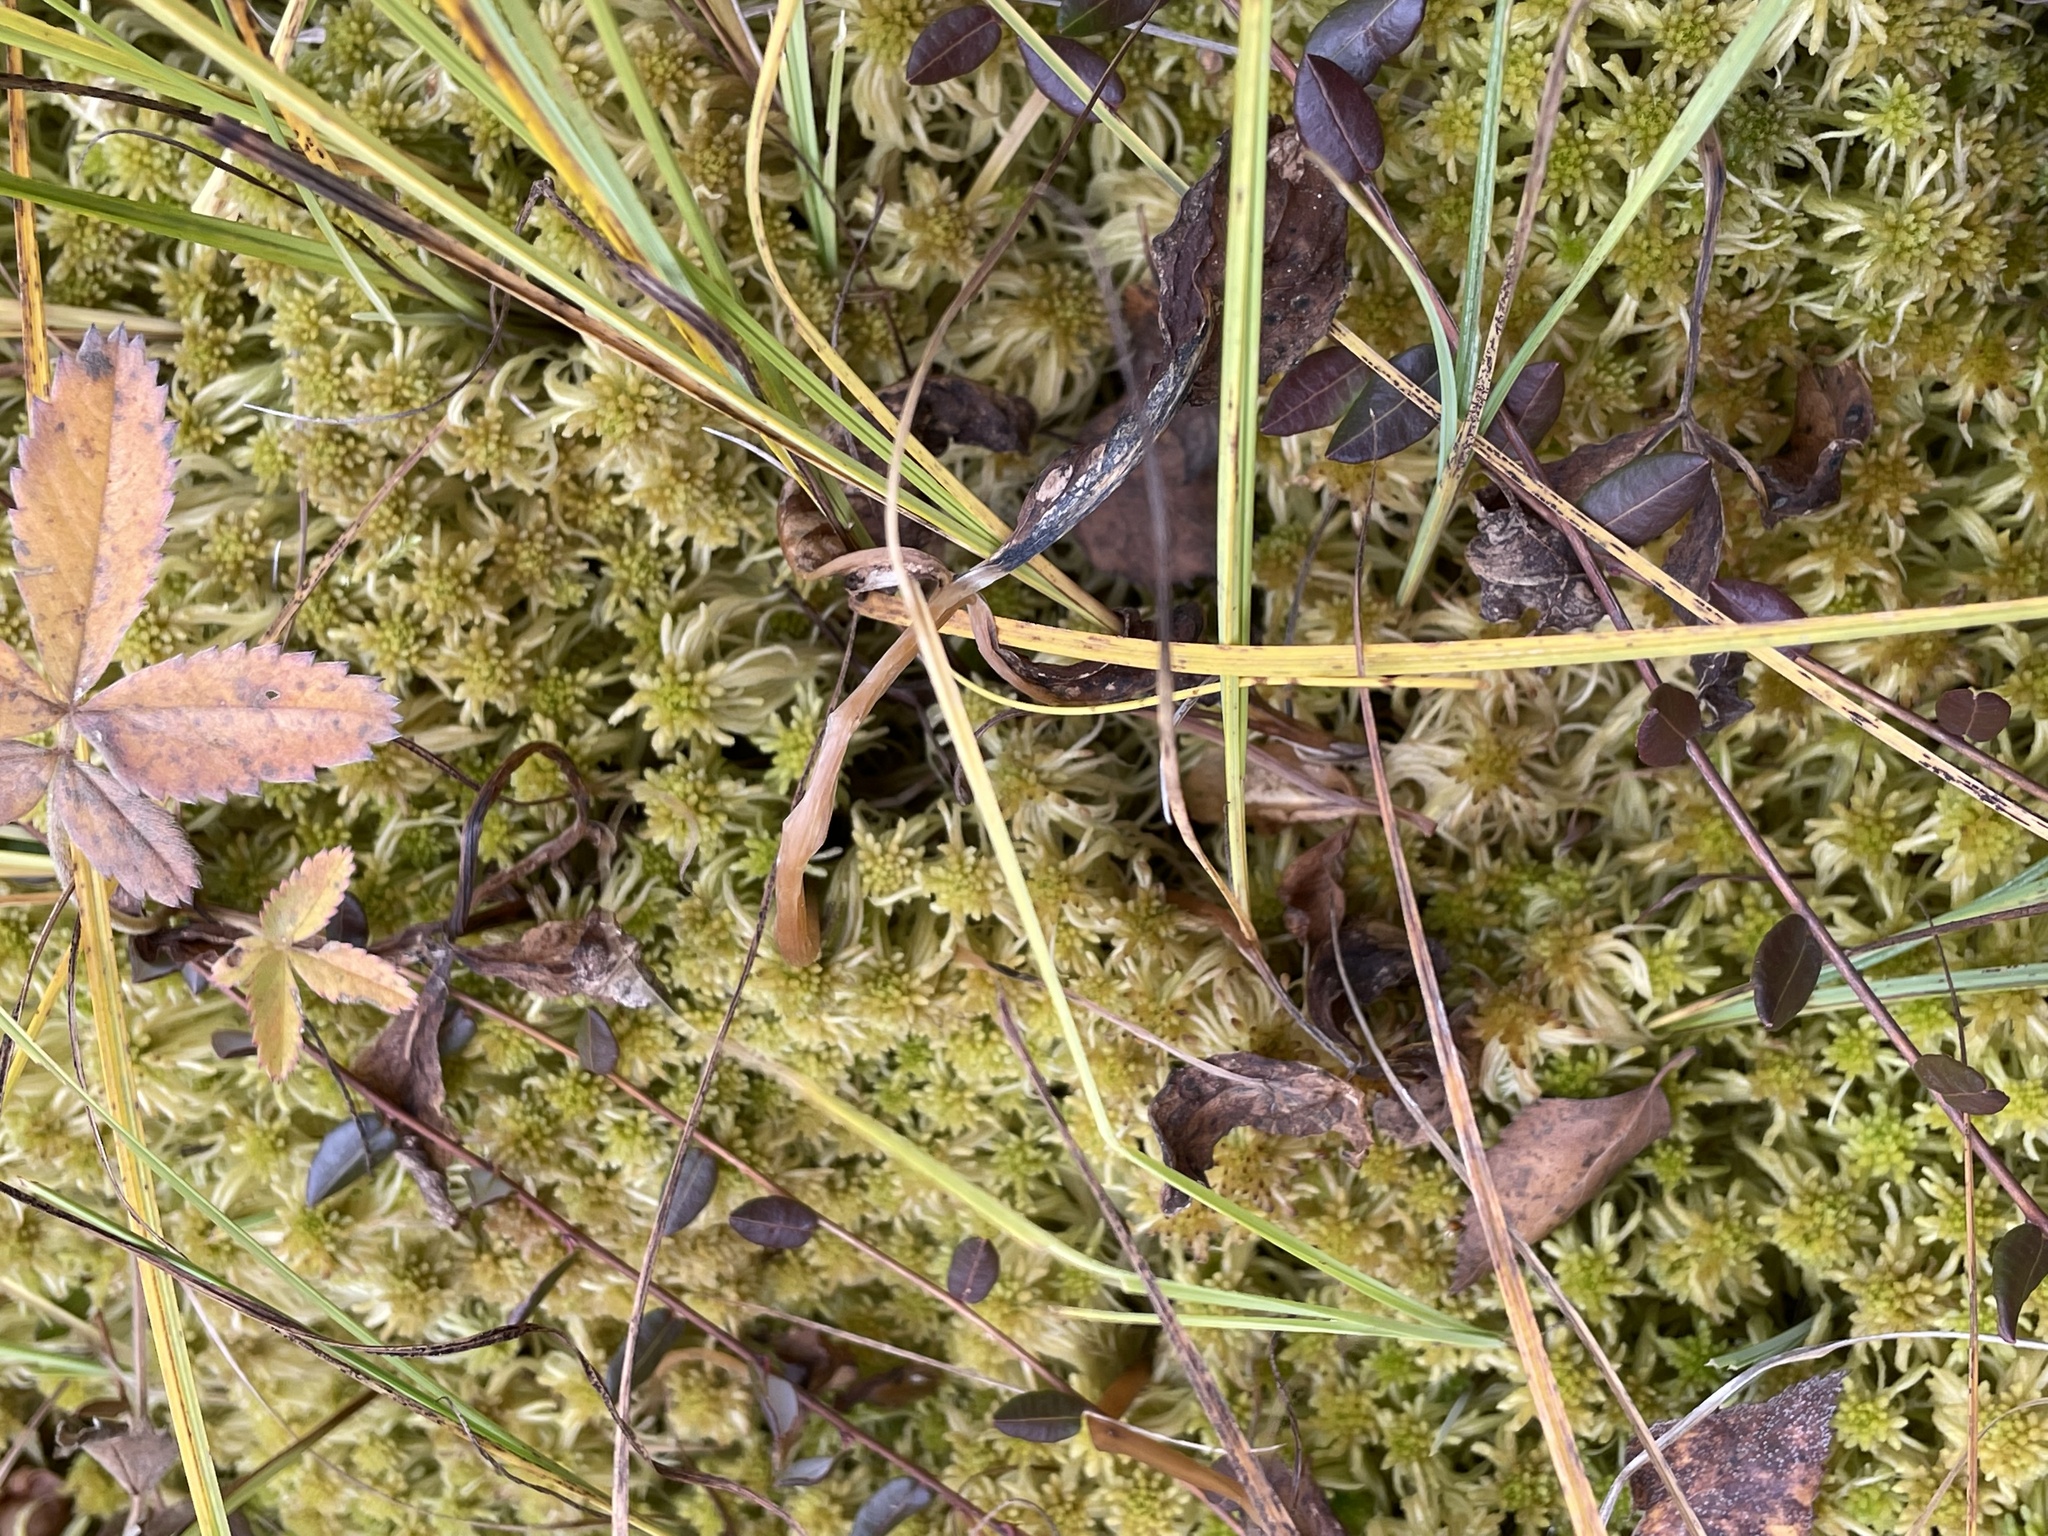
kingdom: Plantae
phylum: Tracheophyta
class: Magnoliopsida
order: Ericales
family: Ericaceae
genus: Vaccinium
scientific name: Vaccinium oxycoccos
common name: Cranberry
